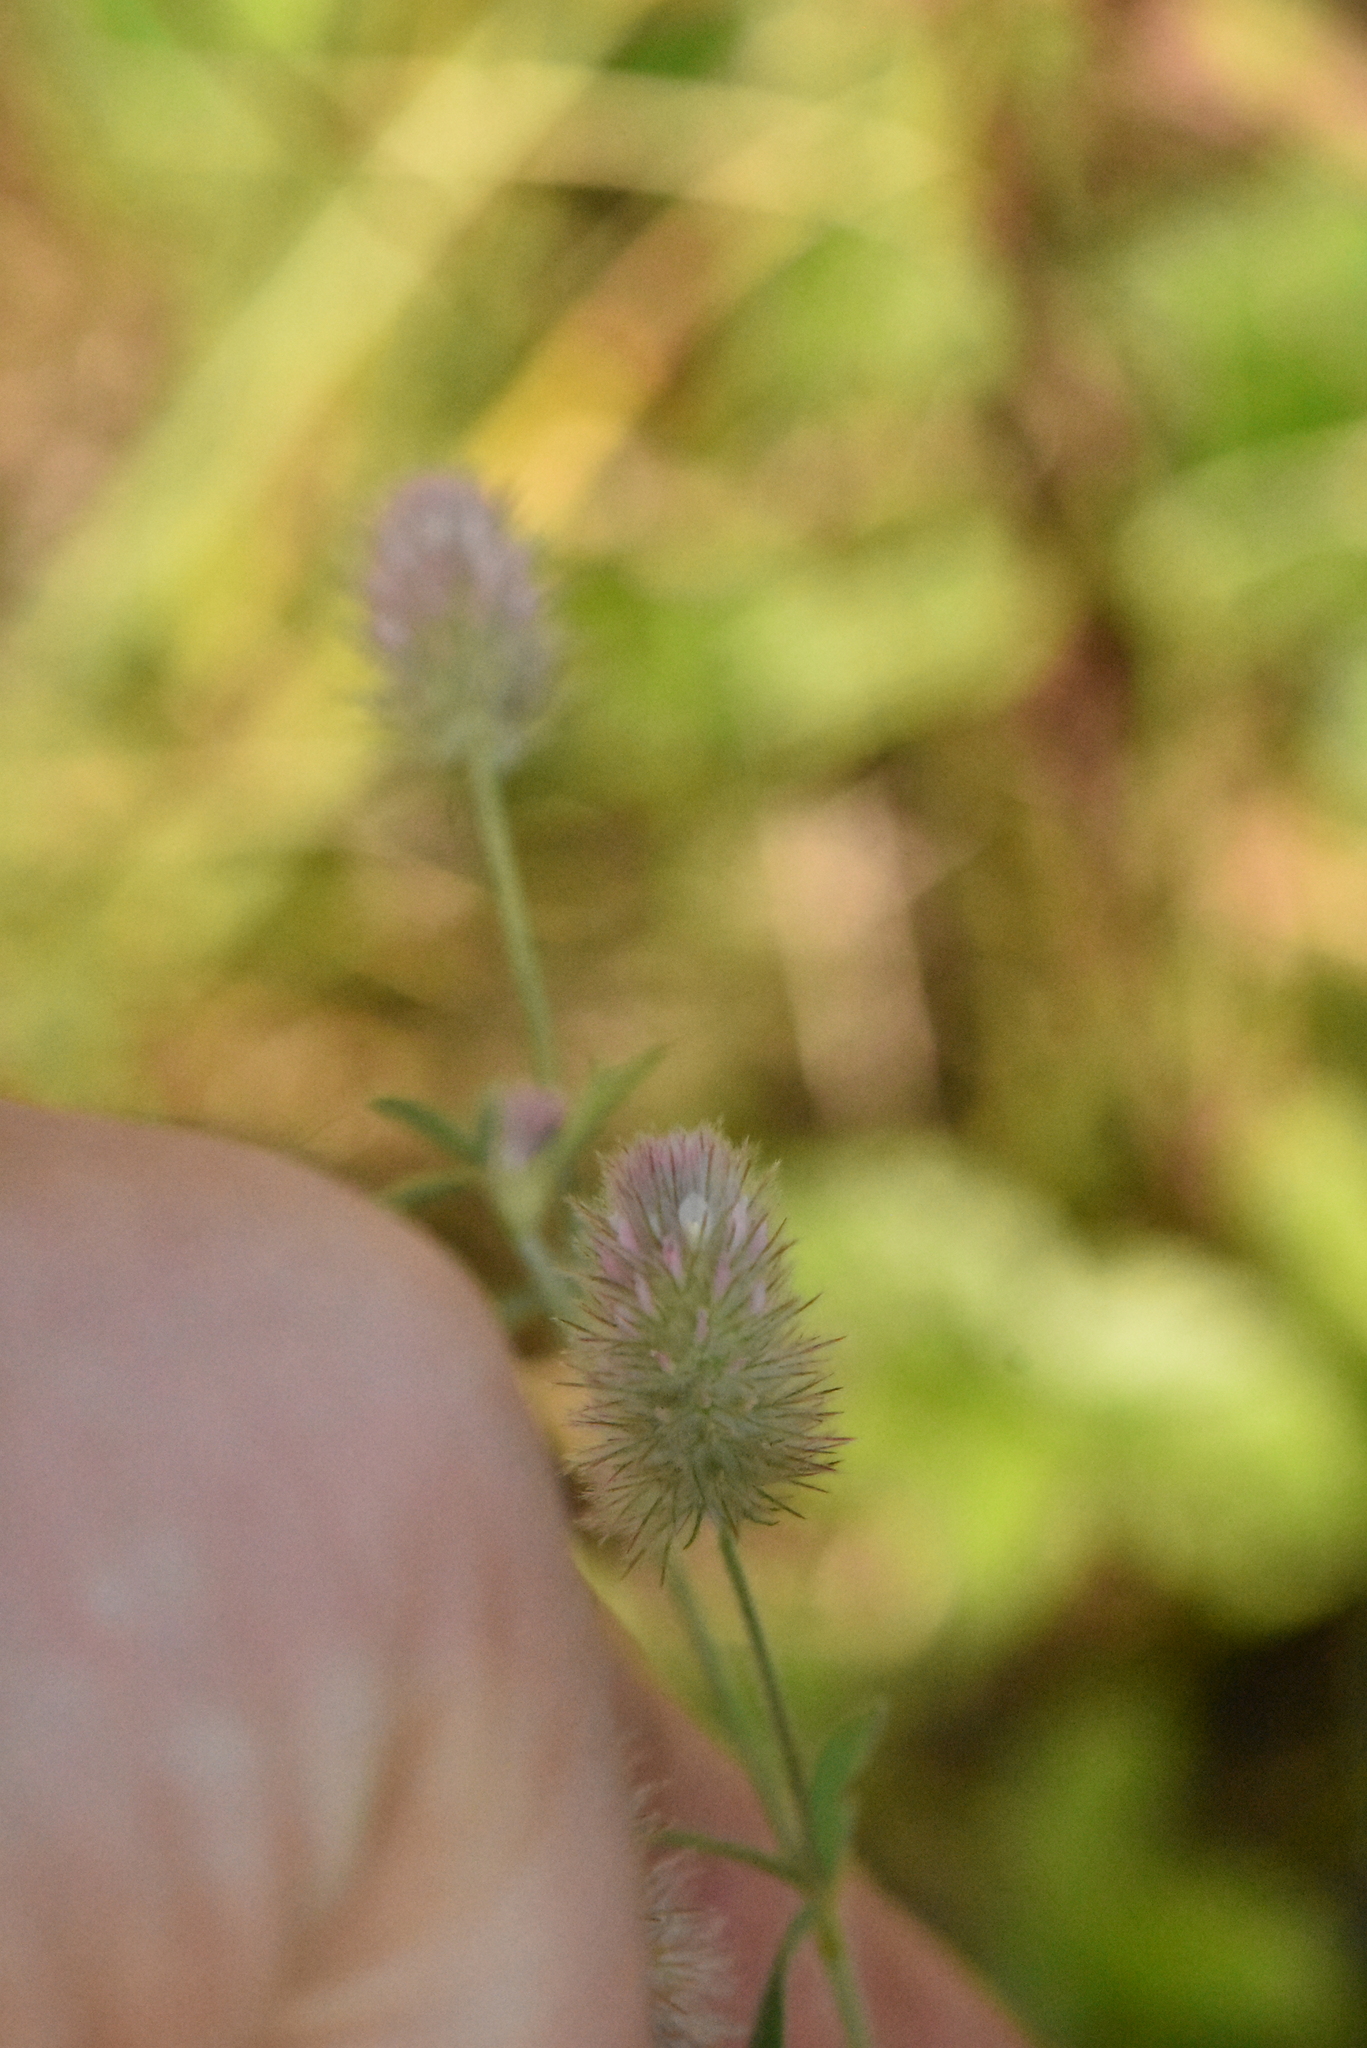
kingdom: Plantae
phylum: Tracheophyta
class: Magnoliopsida
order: Fabales
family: Fabaceae
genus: Trifolium
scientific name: Trifolium arvense
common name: Hare's-foot clover
